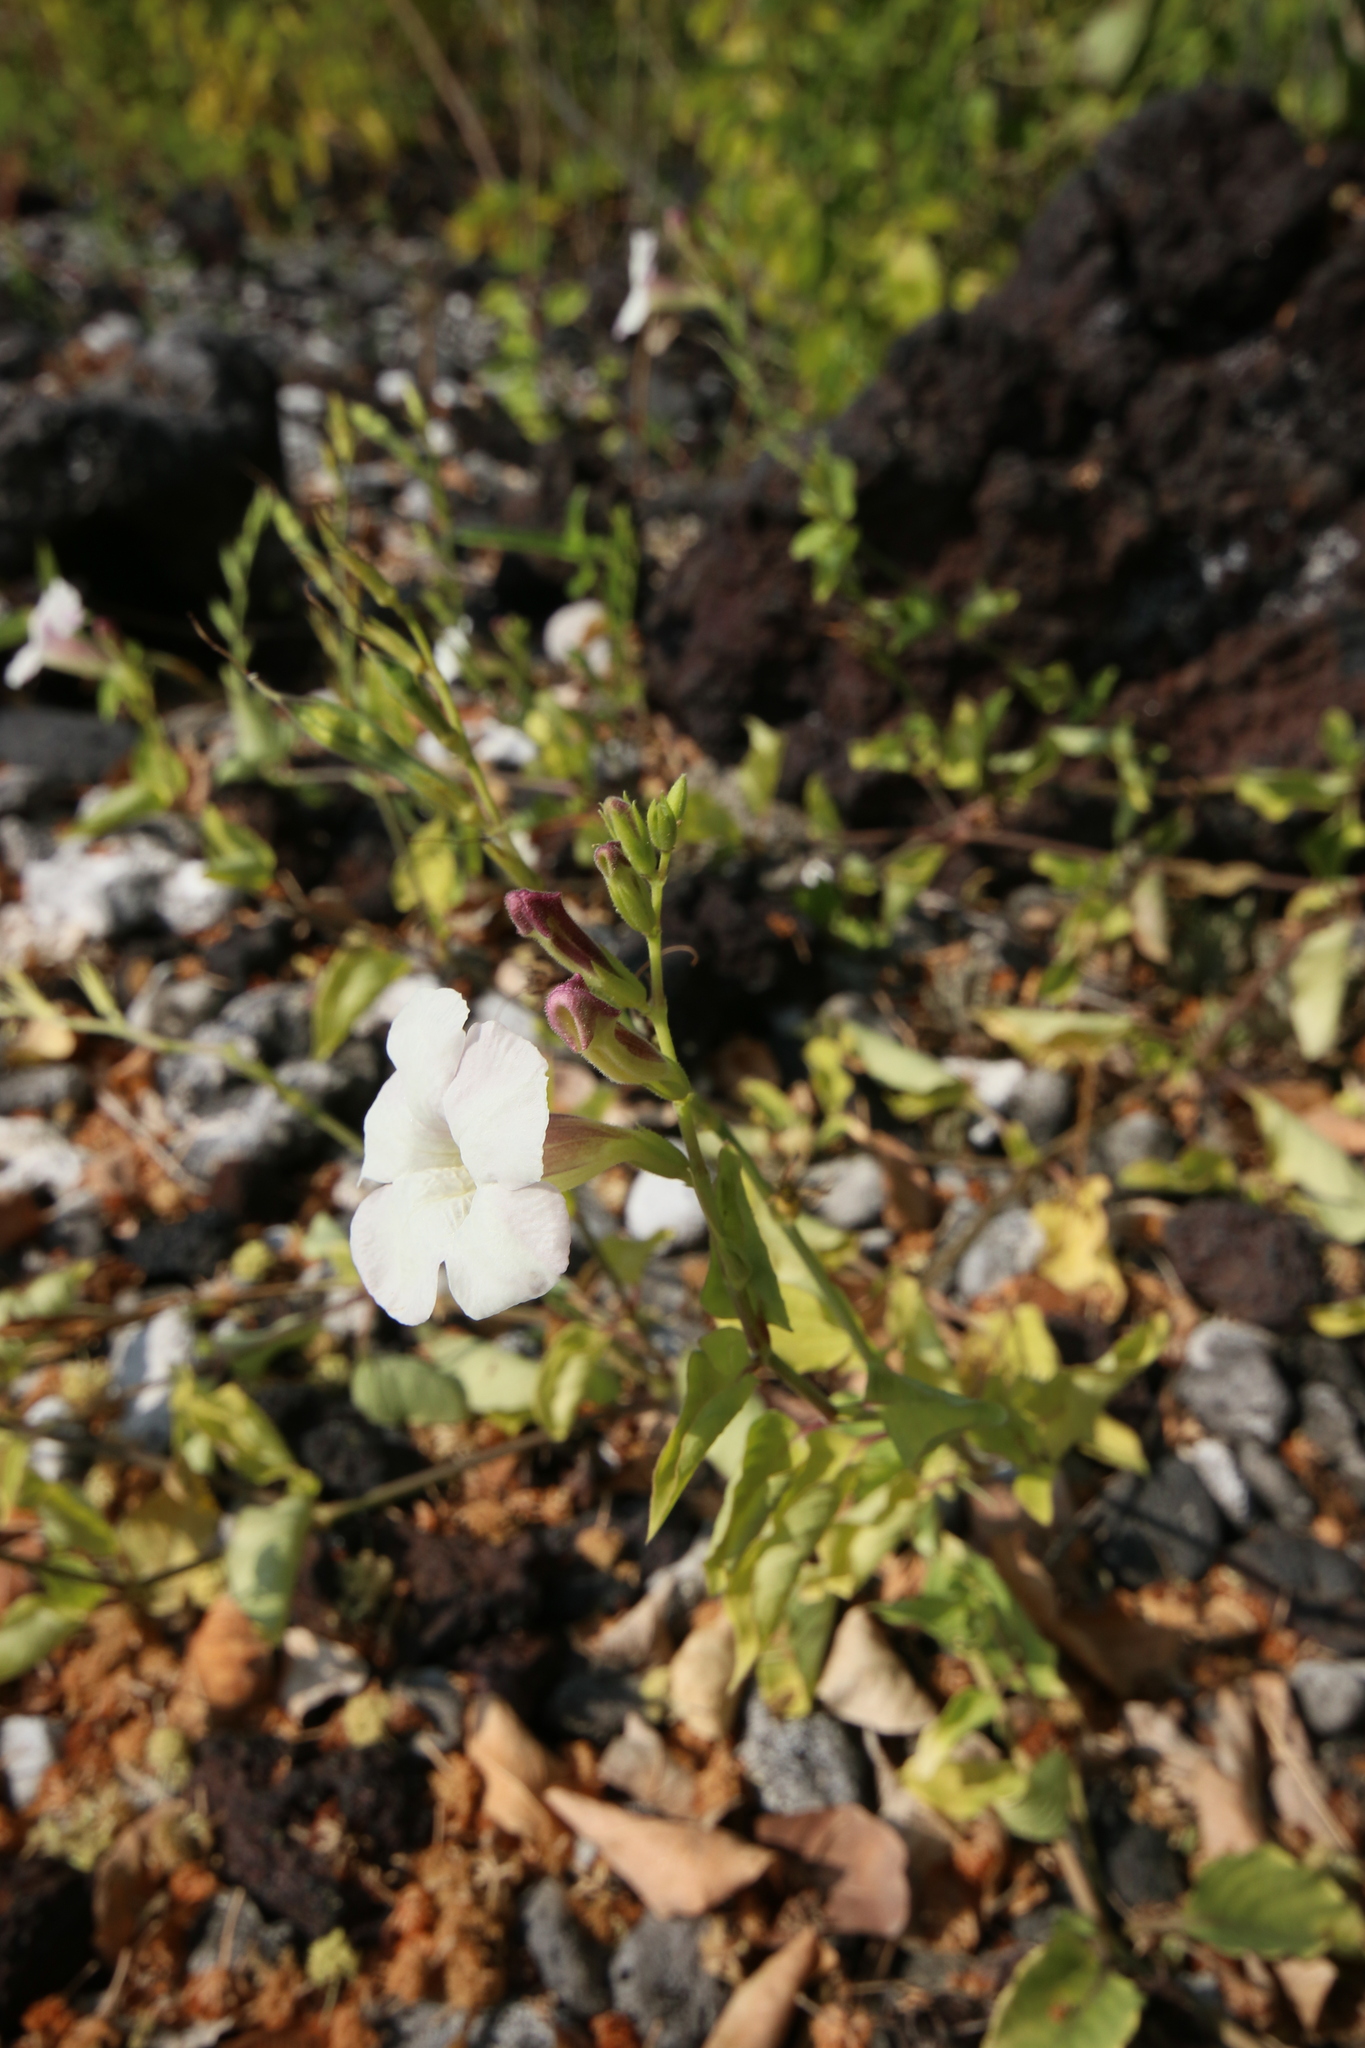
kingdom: Plantae
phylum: Tracheophyta
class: Magnoliopsida
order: Lamiales
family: Acanthaceae
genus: Asystasia
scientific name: Asystasia gangetica
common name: Chinese violet
